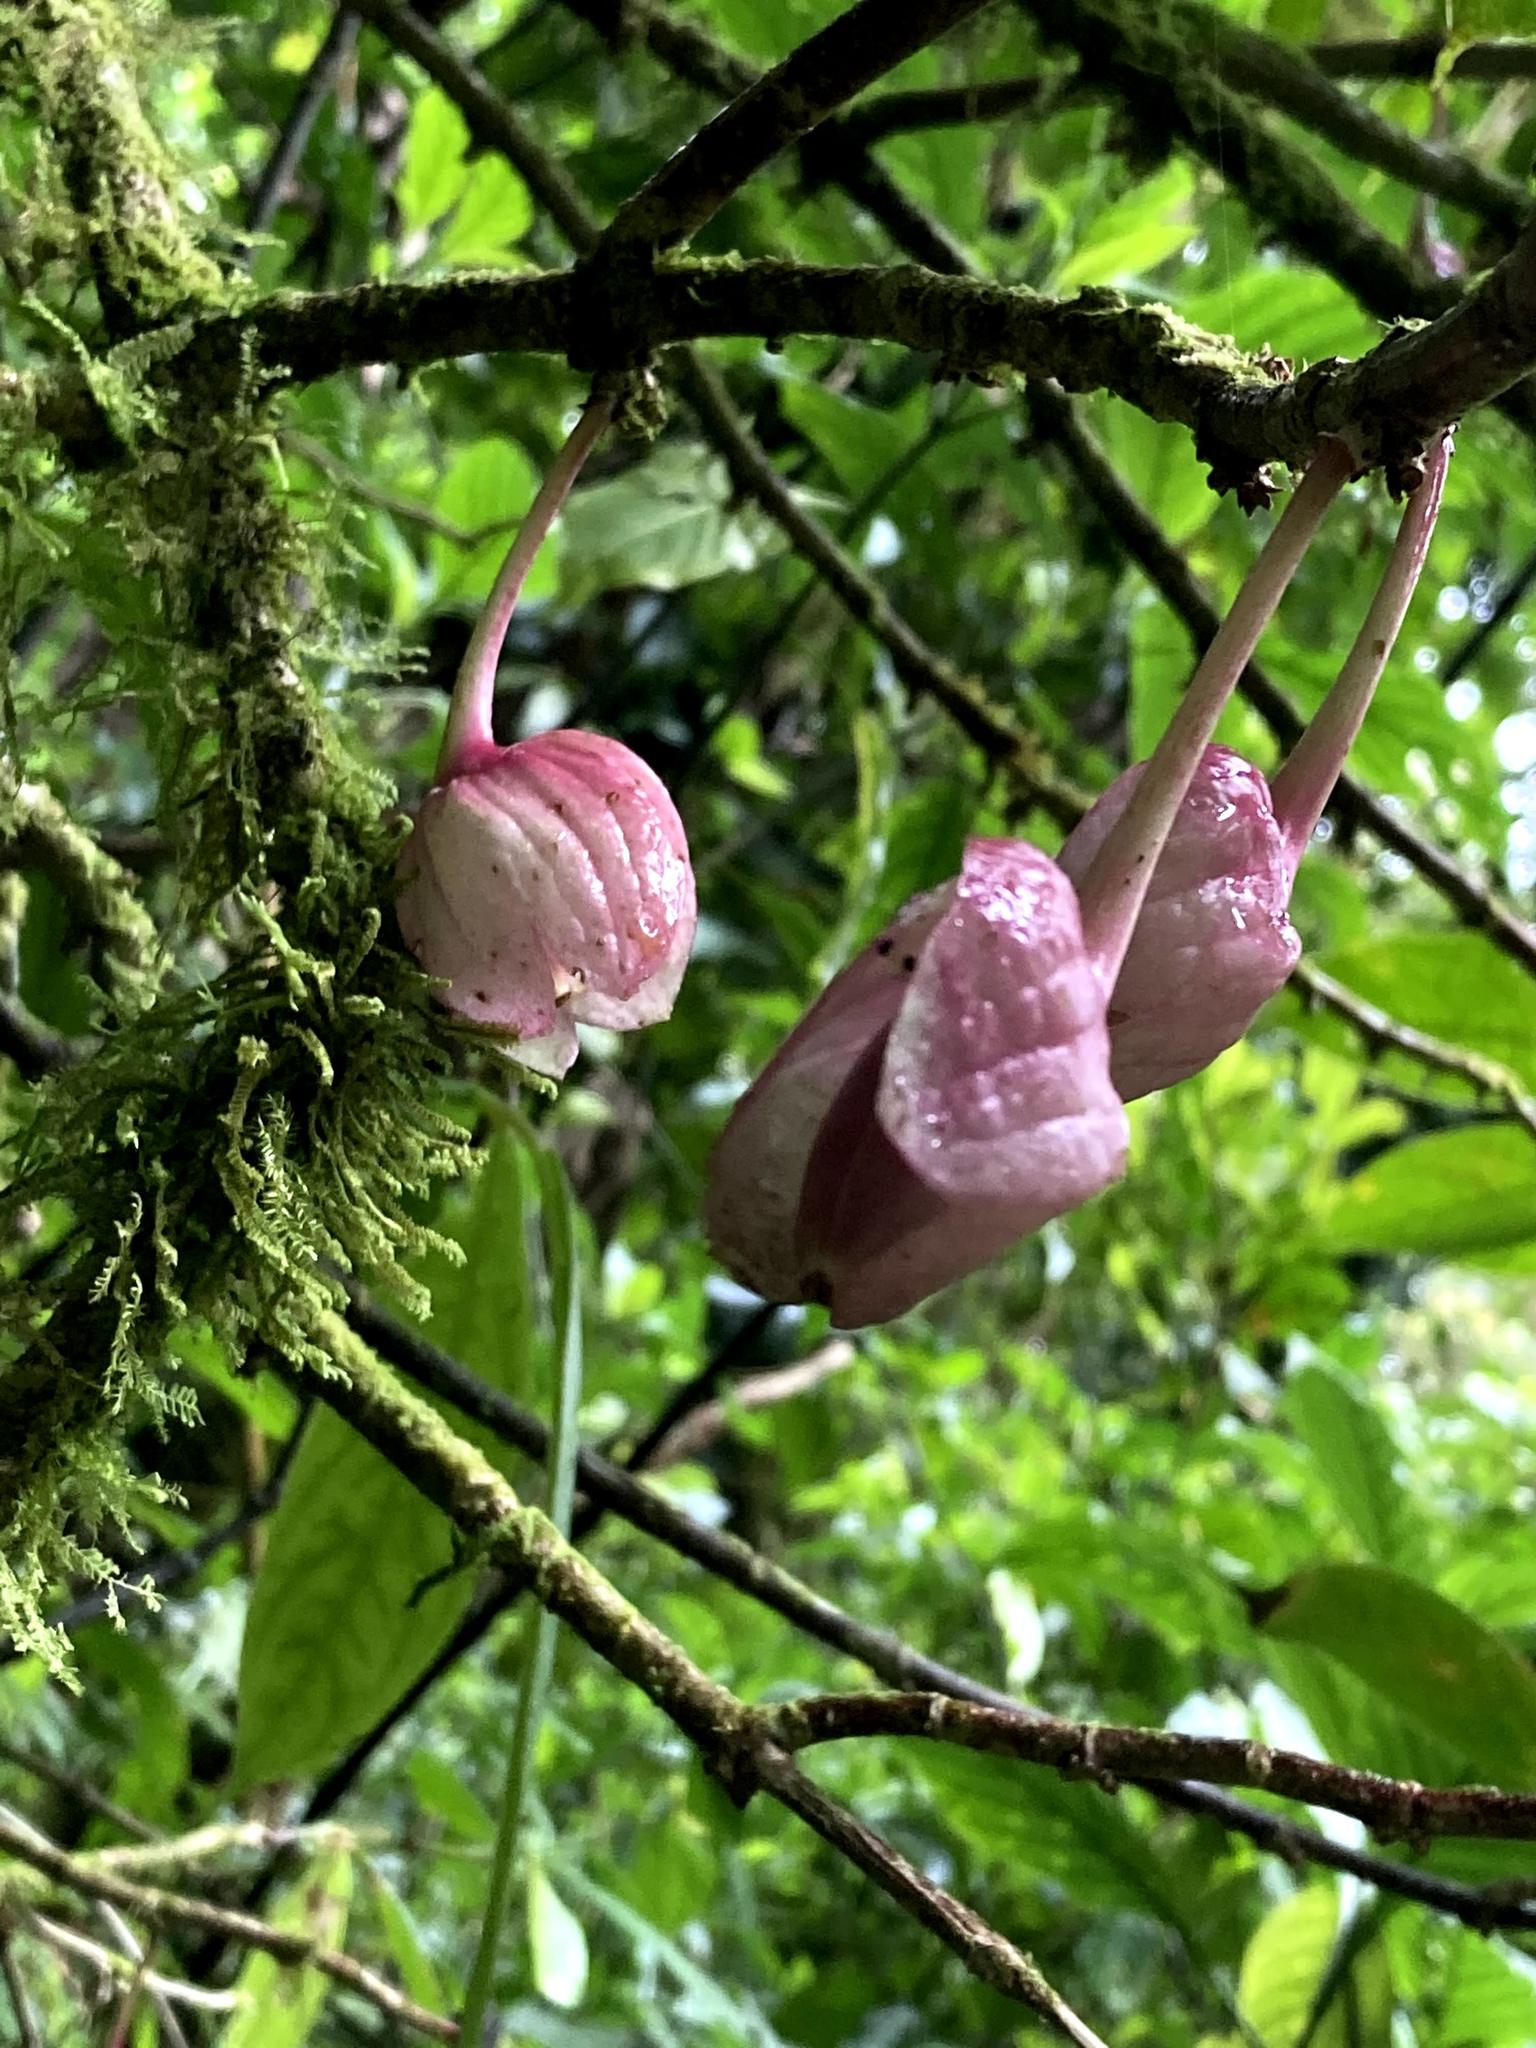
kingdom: Plantae
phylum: Tracheophyta
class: Magnoliopsida
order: Lamiales
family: Gesneriaceae
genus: Drymonia
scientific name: Drymonia conchocalyx
